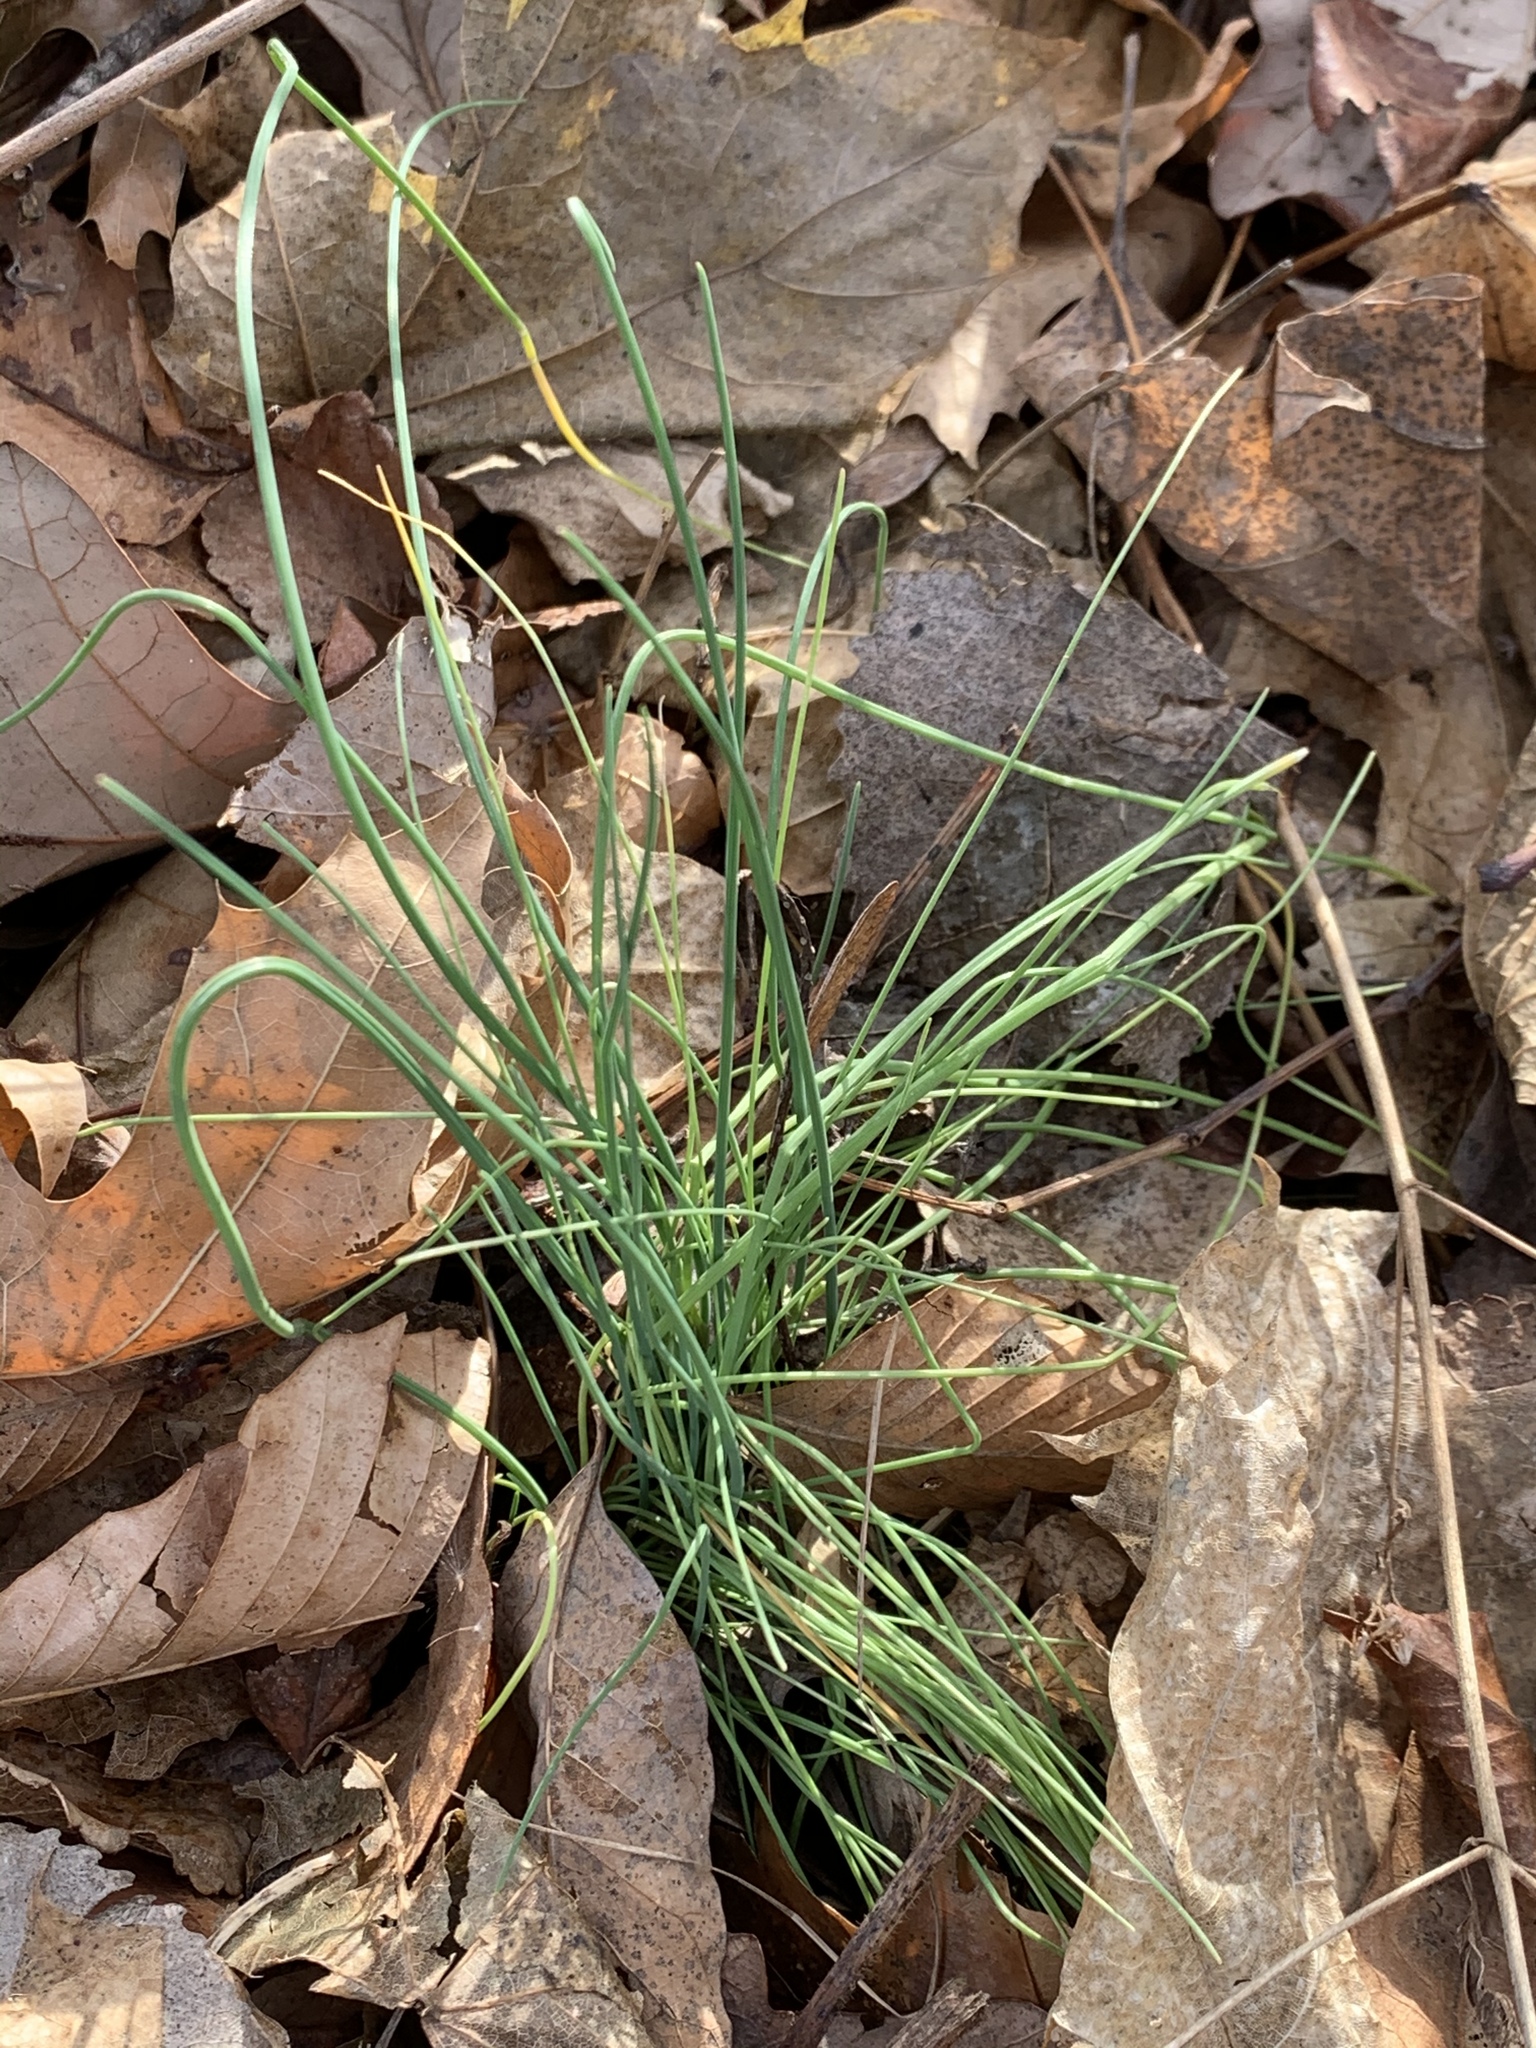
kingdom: Plantae
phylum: Tracheophyta
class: Liliopsida
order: Asparagales
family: Amaryllidaceae
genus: Allium
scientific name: Allium vineale
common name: Crow garlic
